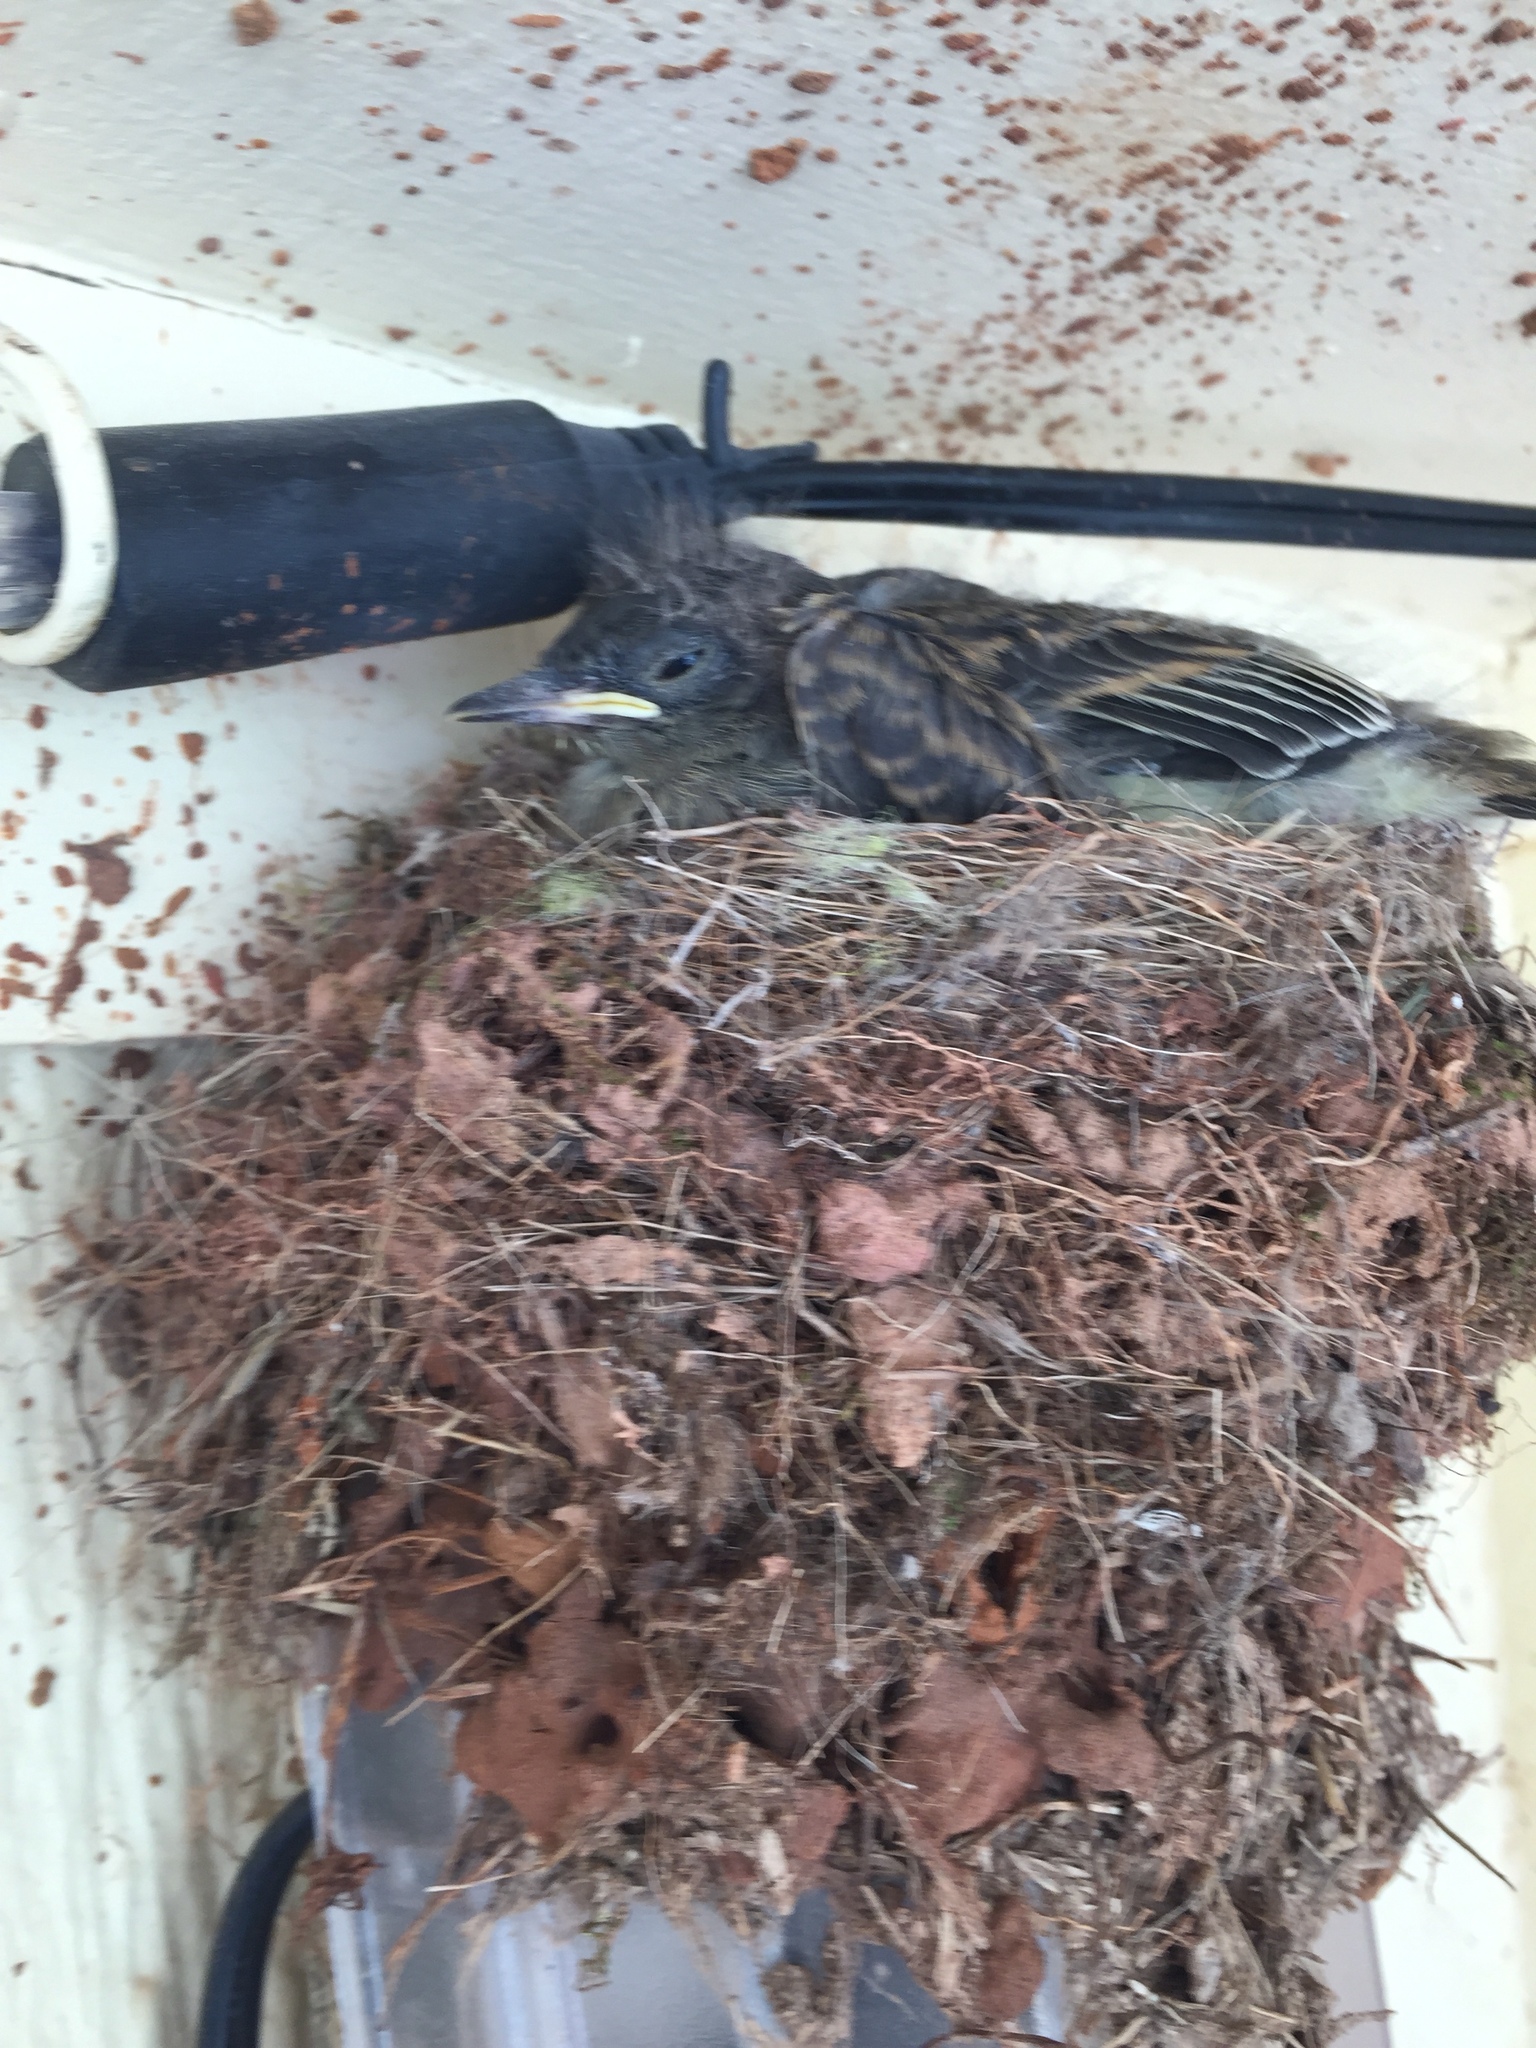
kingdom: Animalia
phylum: Chordata
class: Aves
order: Passeriformes
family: Tyrannidae
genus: Sayornis
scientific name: Sayornis phoebe
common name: Eastern phoebe
